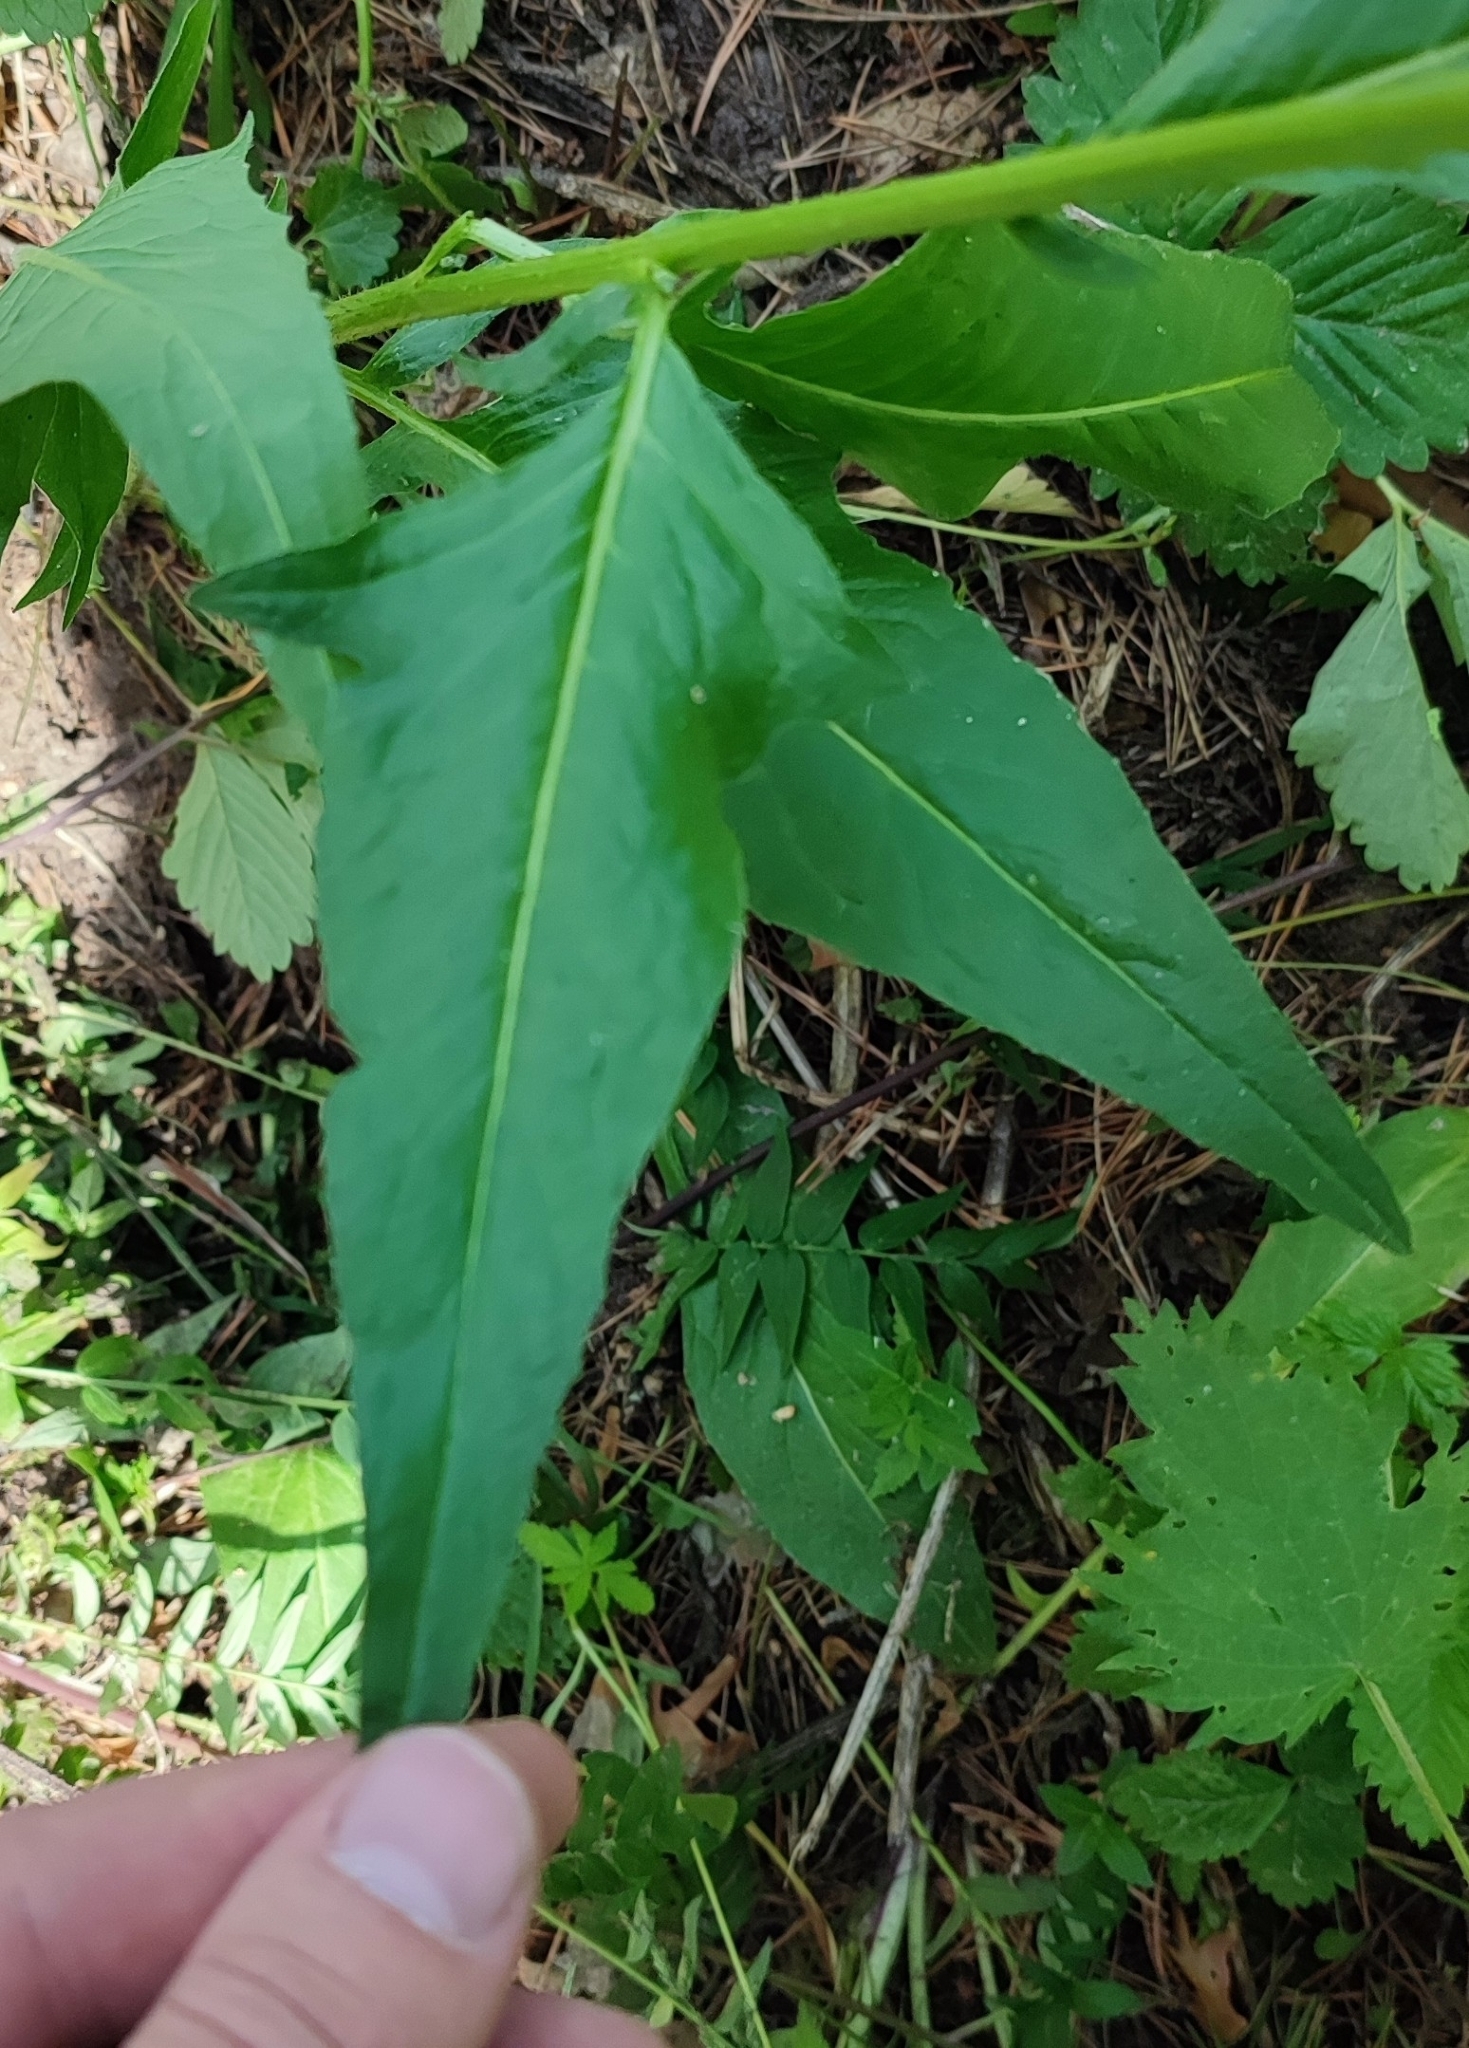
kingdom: Plantae
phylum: Tracheophyta
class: Magnoliopsida
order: Brassicales
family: Brassicaceae
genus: Bunias
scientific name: Bunias orientalis
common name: Warty-cabbage
